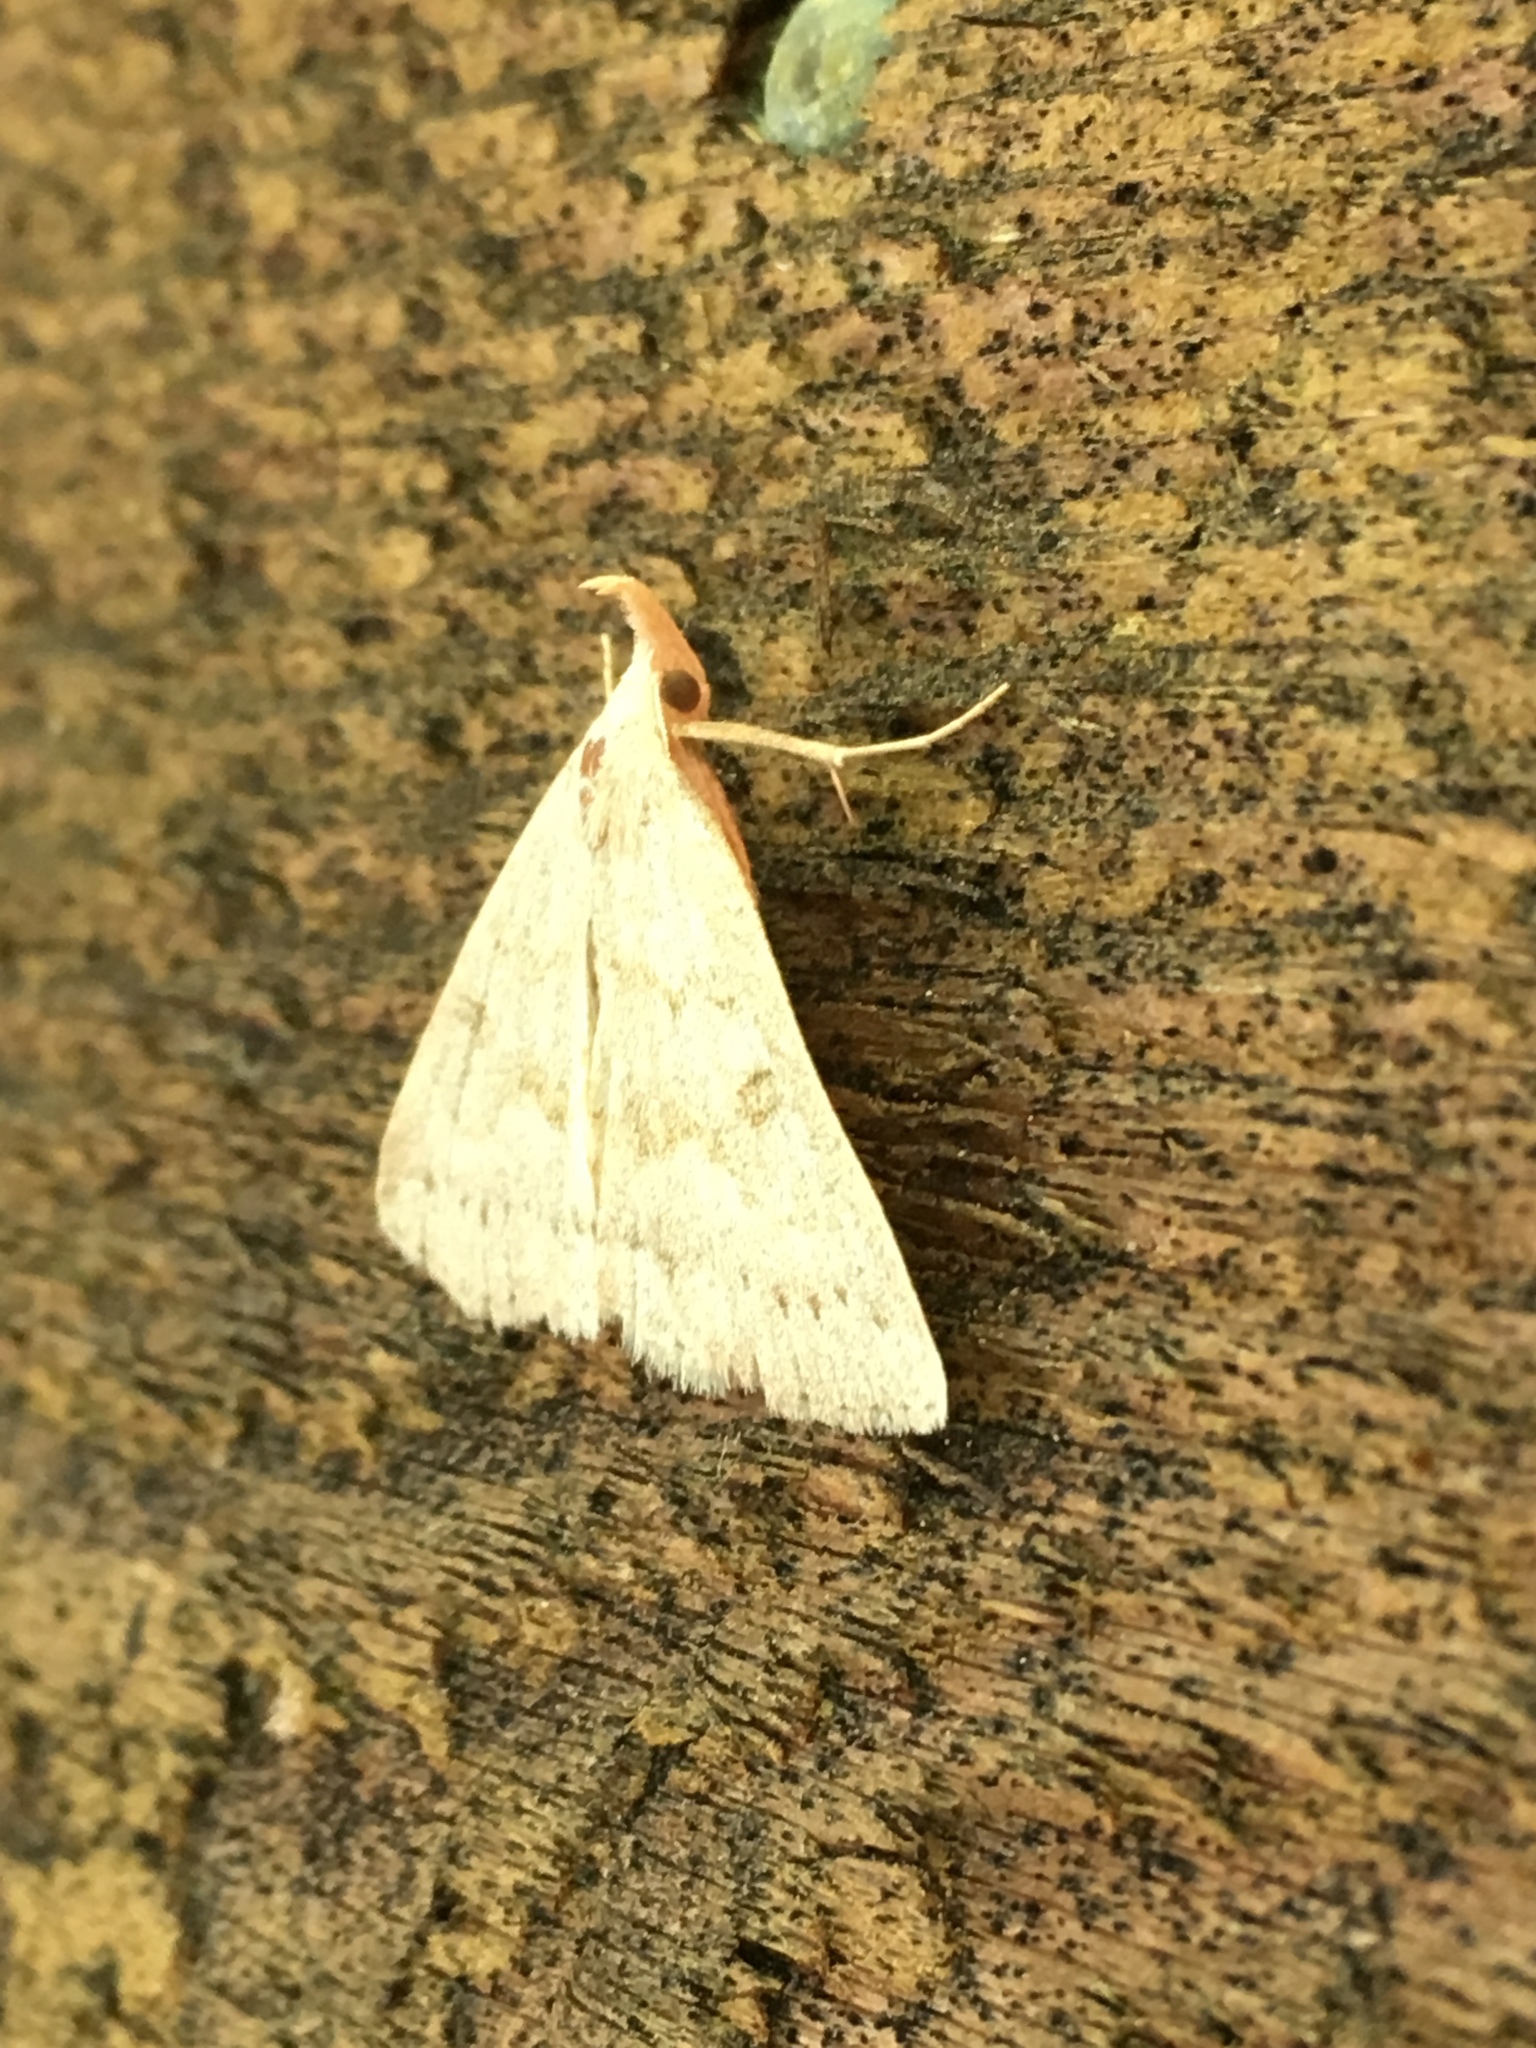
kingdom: Animalia
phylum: Arthropoda
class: Insecta
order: Lepidoptera
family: Erebidae
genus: Macrochilo
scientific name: Macrochilo morbidalis
